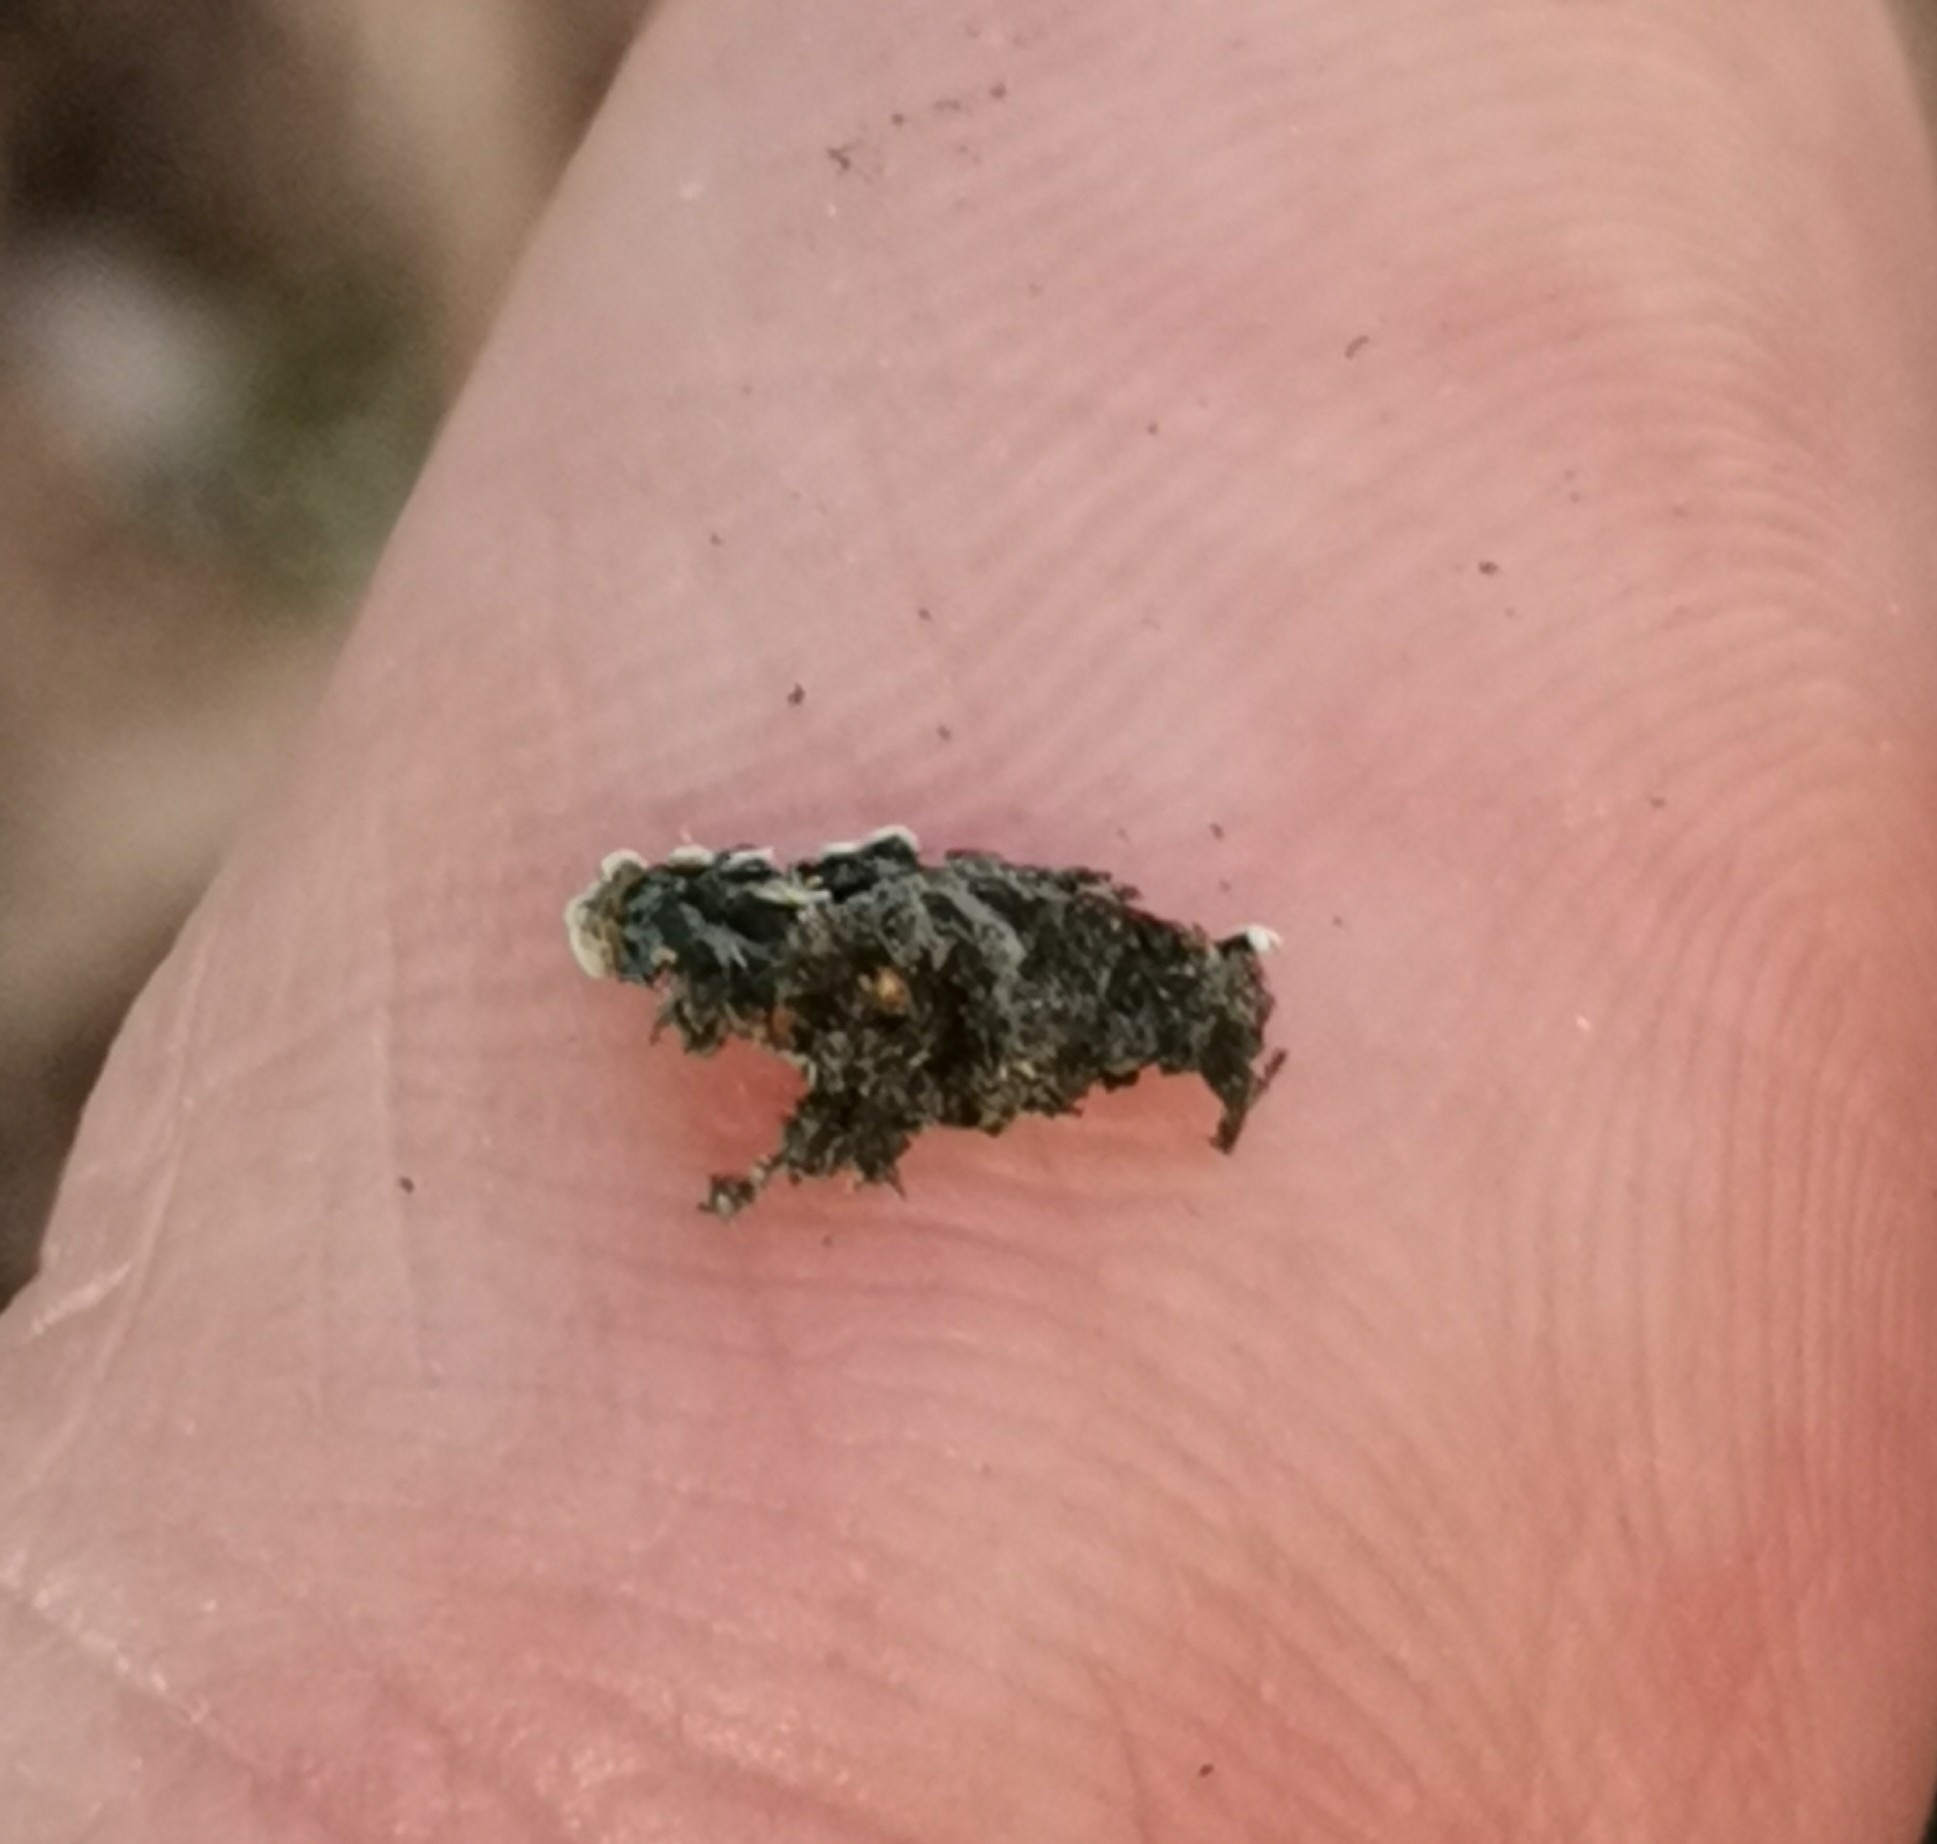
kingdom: Fungi
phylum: Ascomycota
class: Lecanoromycetes
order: Caliciales
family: Physciaceae
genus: Physconia
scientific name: Physconia distorta
